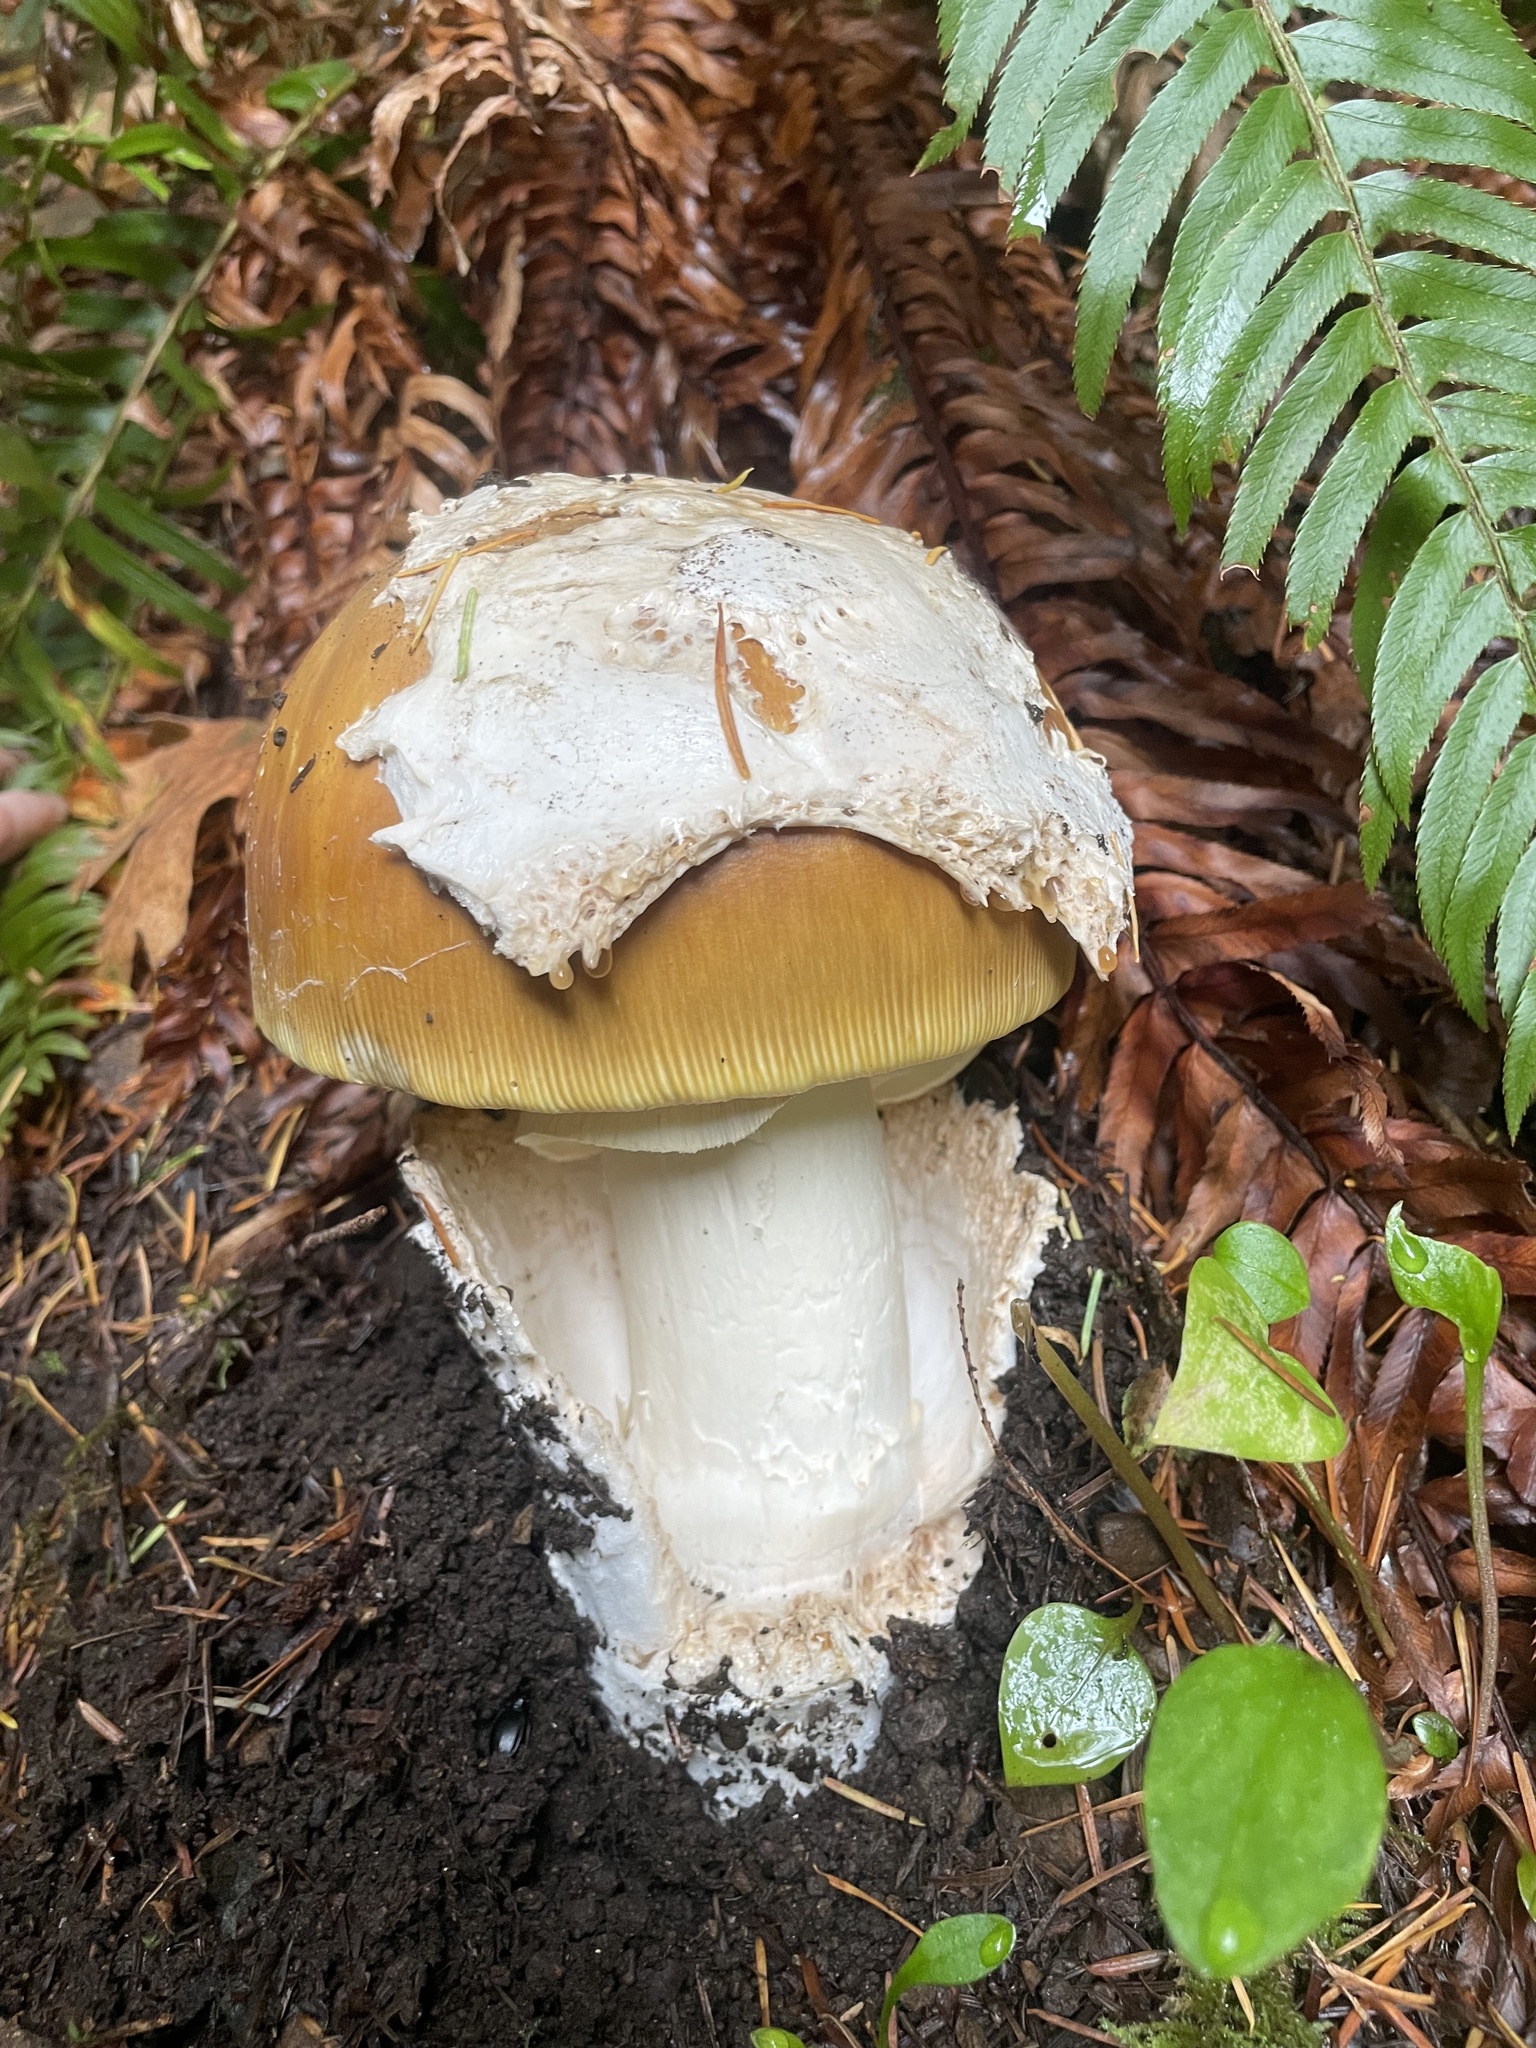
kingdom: Fungi
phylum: Basidiomycota
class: Agaricomycetes
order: Agaricales
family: Amanitaceae
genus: Amanita
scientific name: Amanita calyptroderma
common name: Coccora
